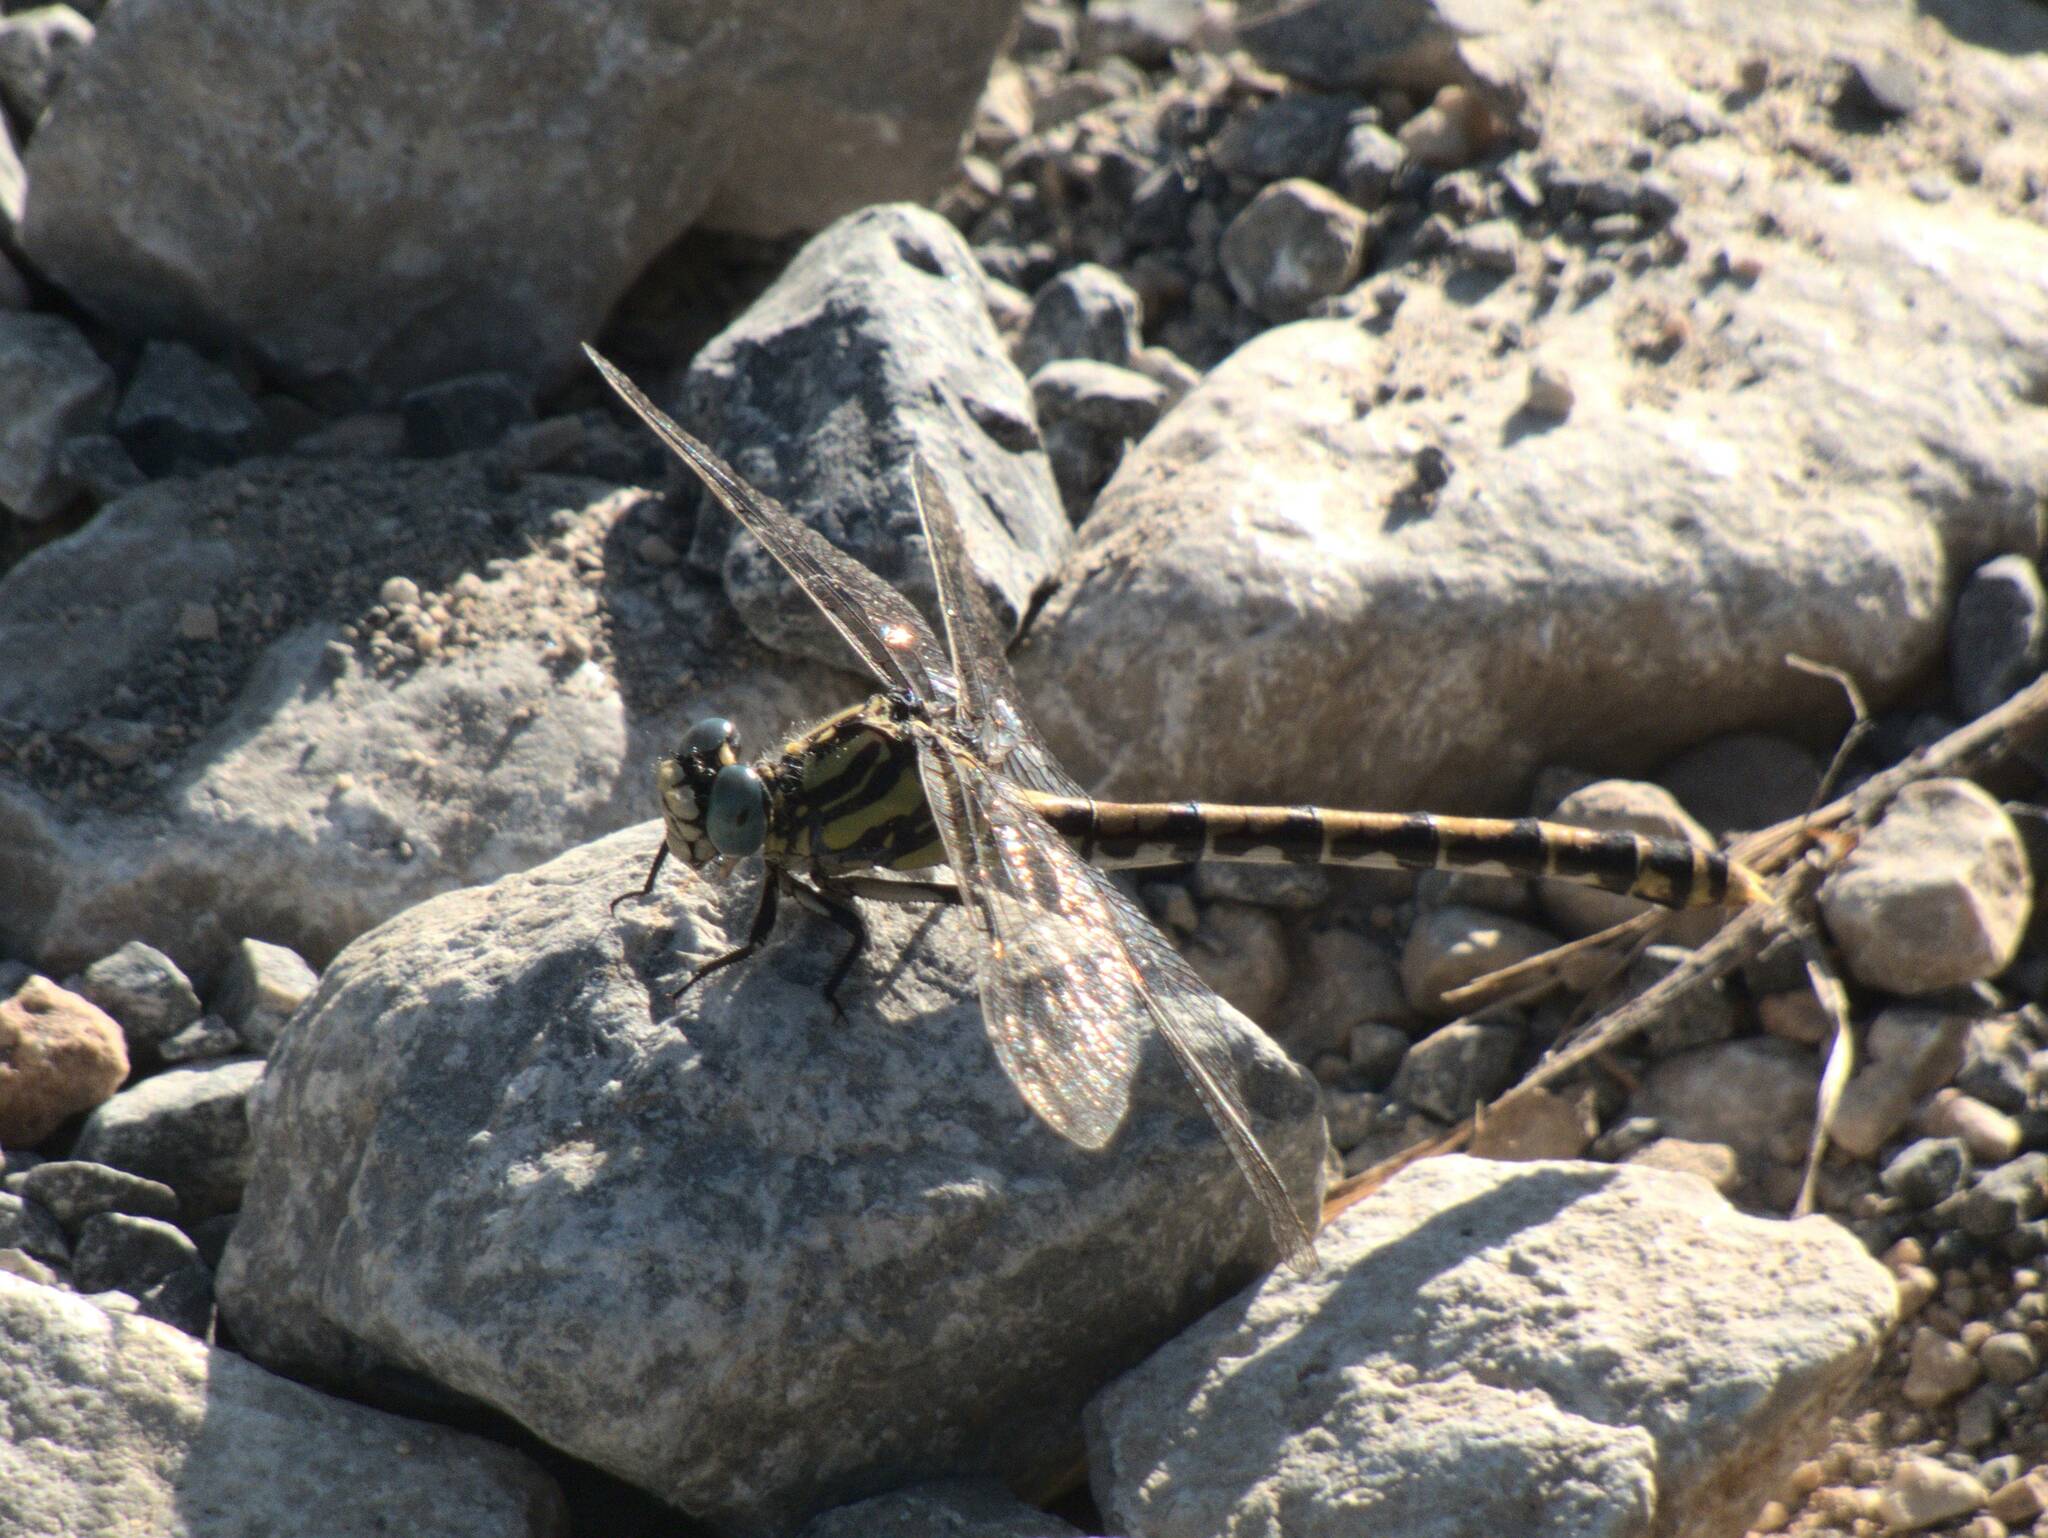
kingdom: Animalia
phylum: Arthropoda
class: Insecta
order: Odonata
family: Gomphidae
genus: Onychogomphus
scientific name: Onychogomphus uncatus
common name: Large pincertail
